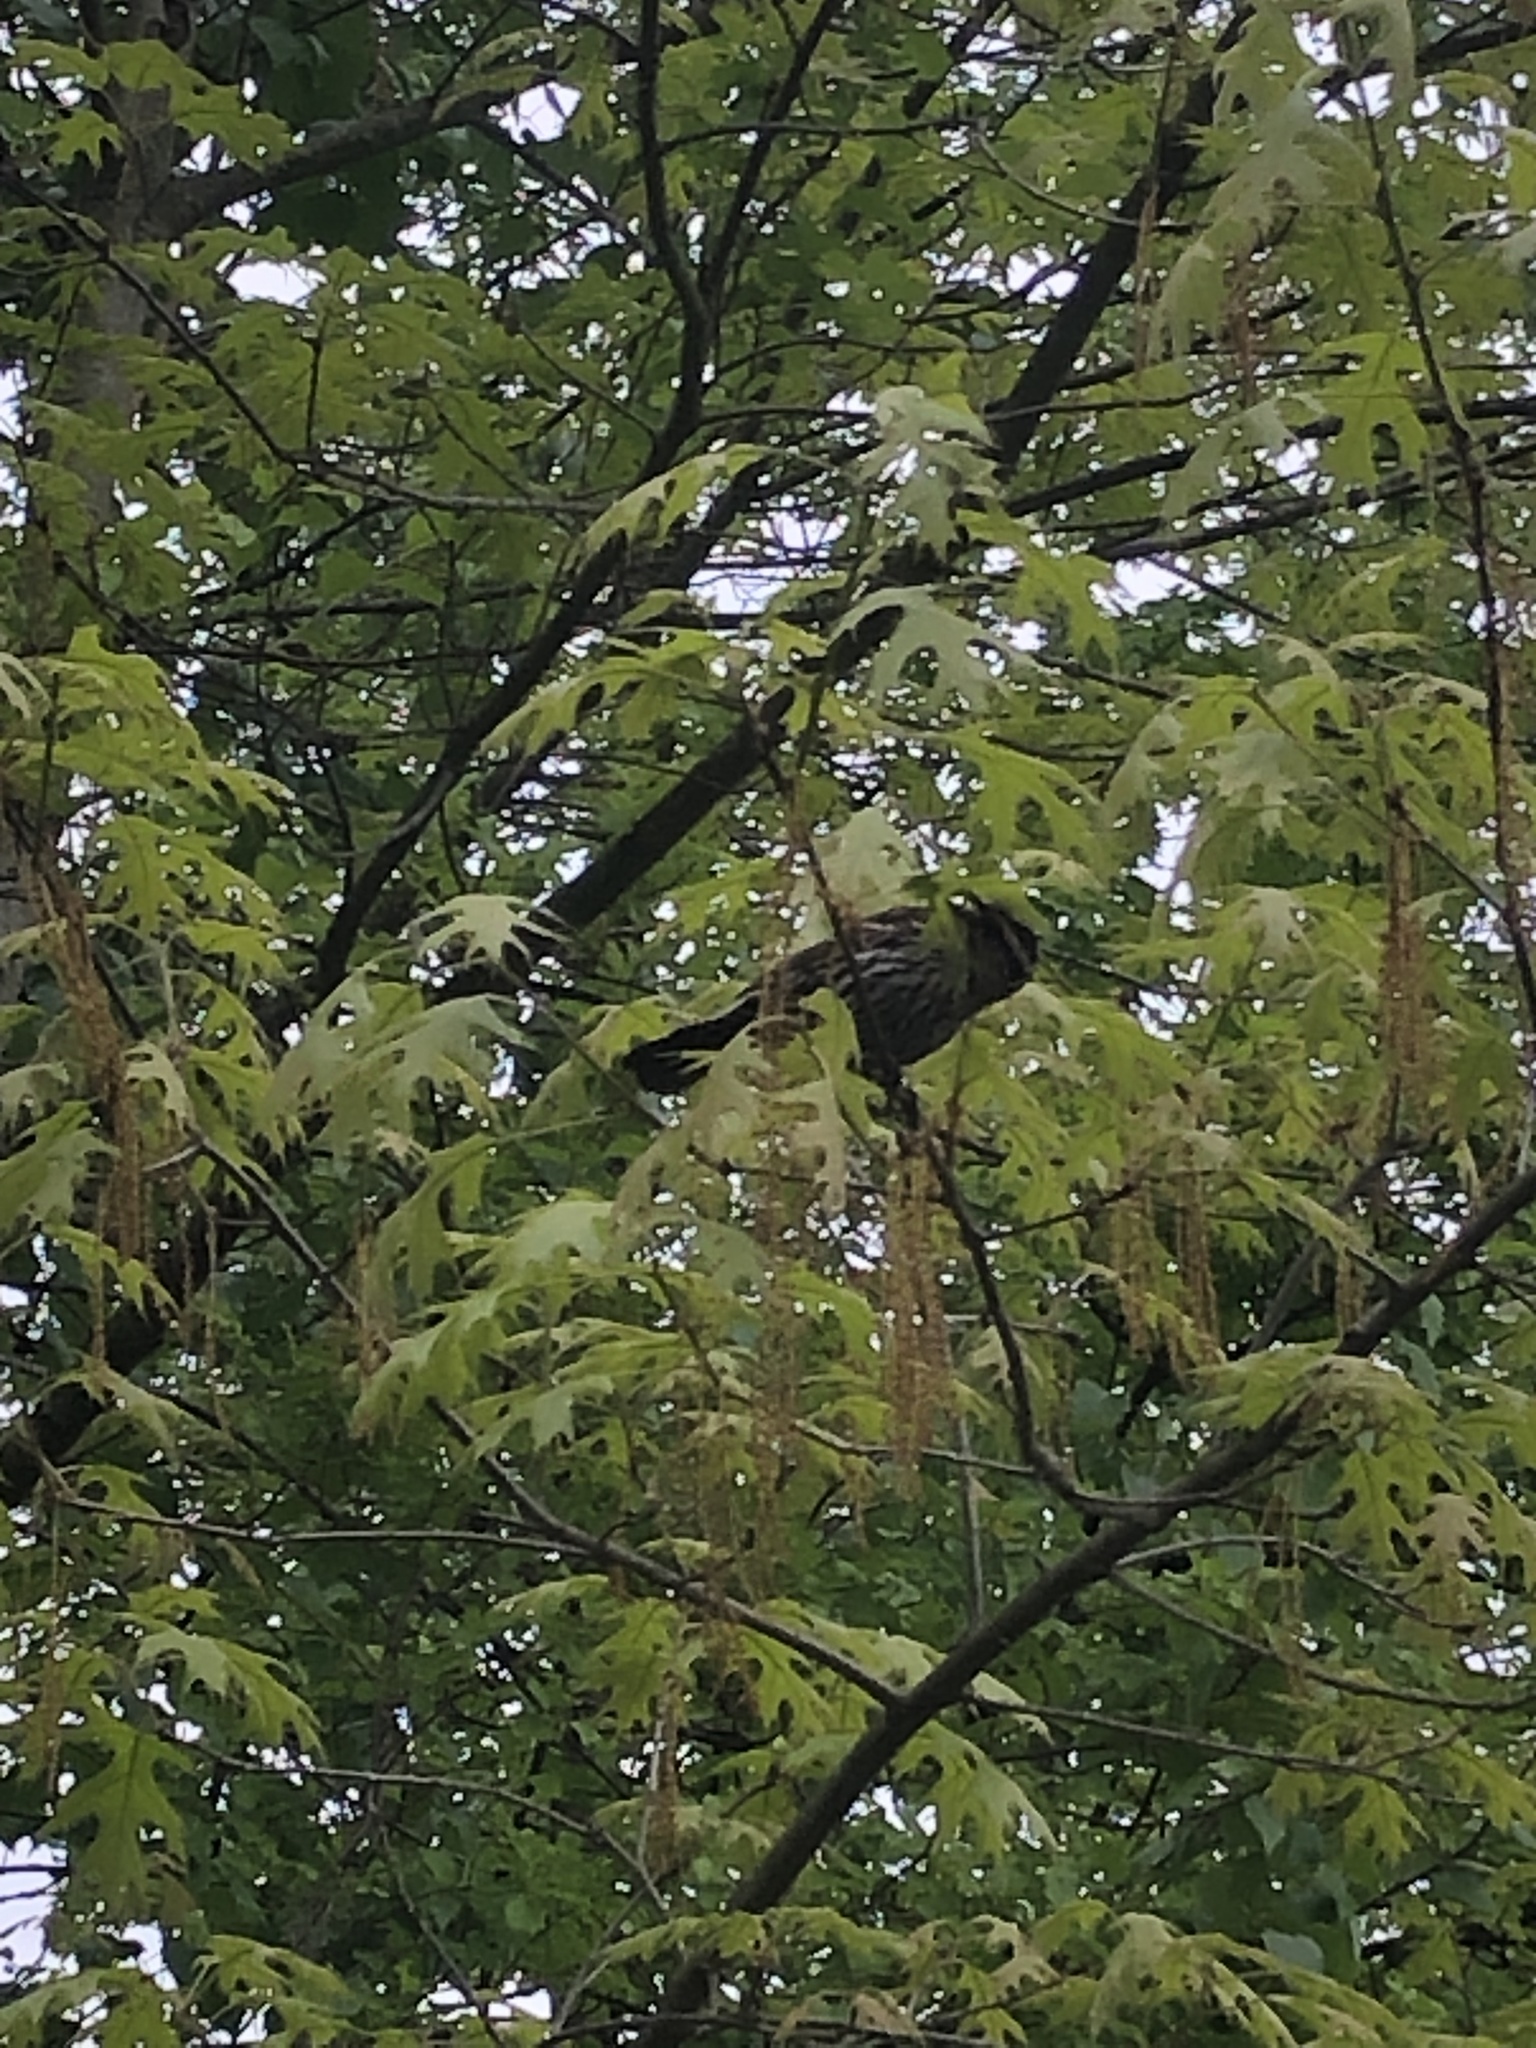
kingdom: Animalia
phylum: Chordata
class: Aves
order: Passeriformes
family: Icteridae
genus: Agelaius
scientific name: Agelaius phoeniceus
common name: Red-winged blackbird
